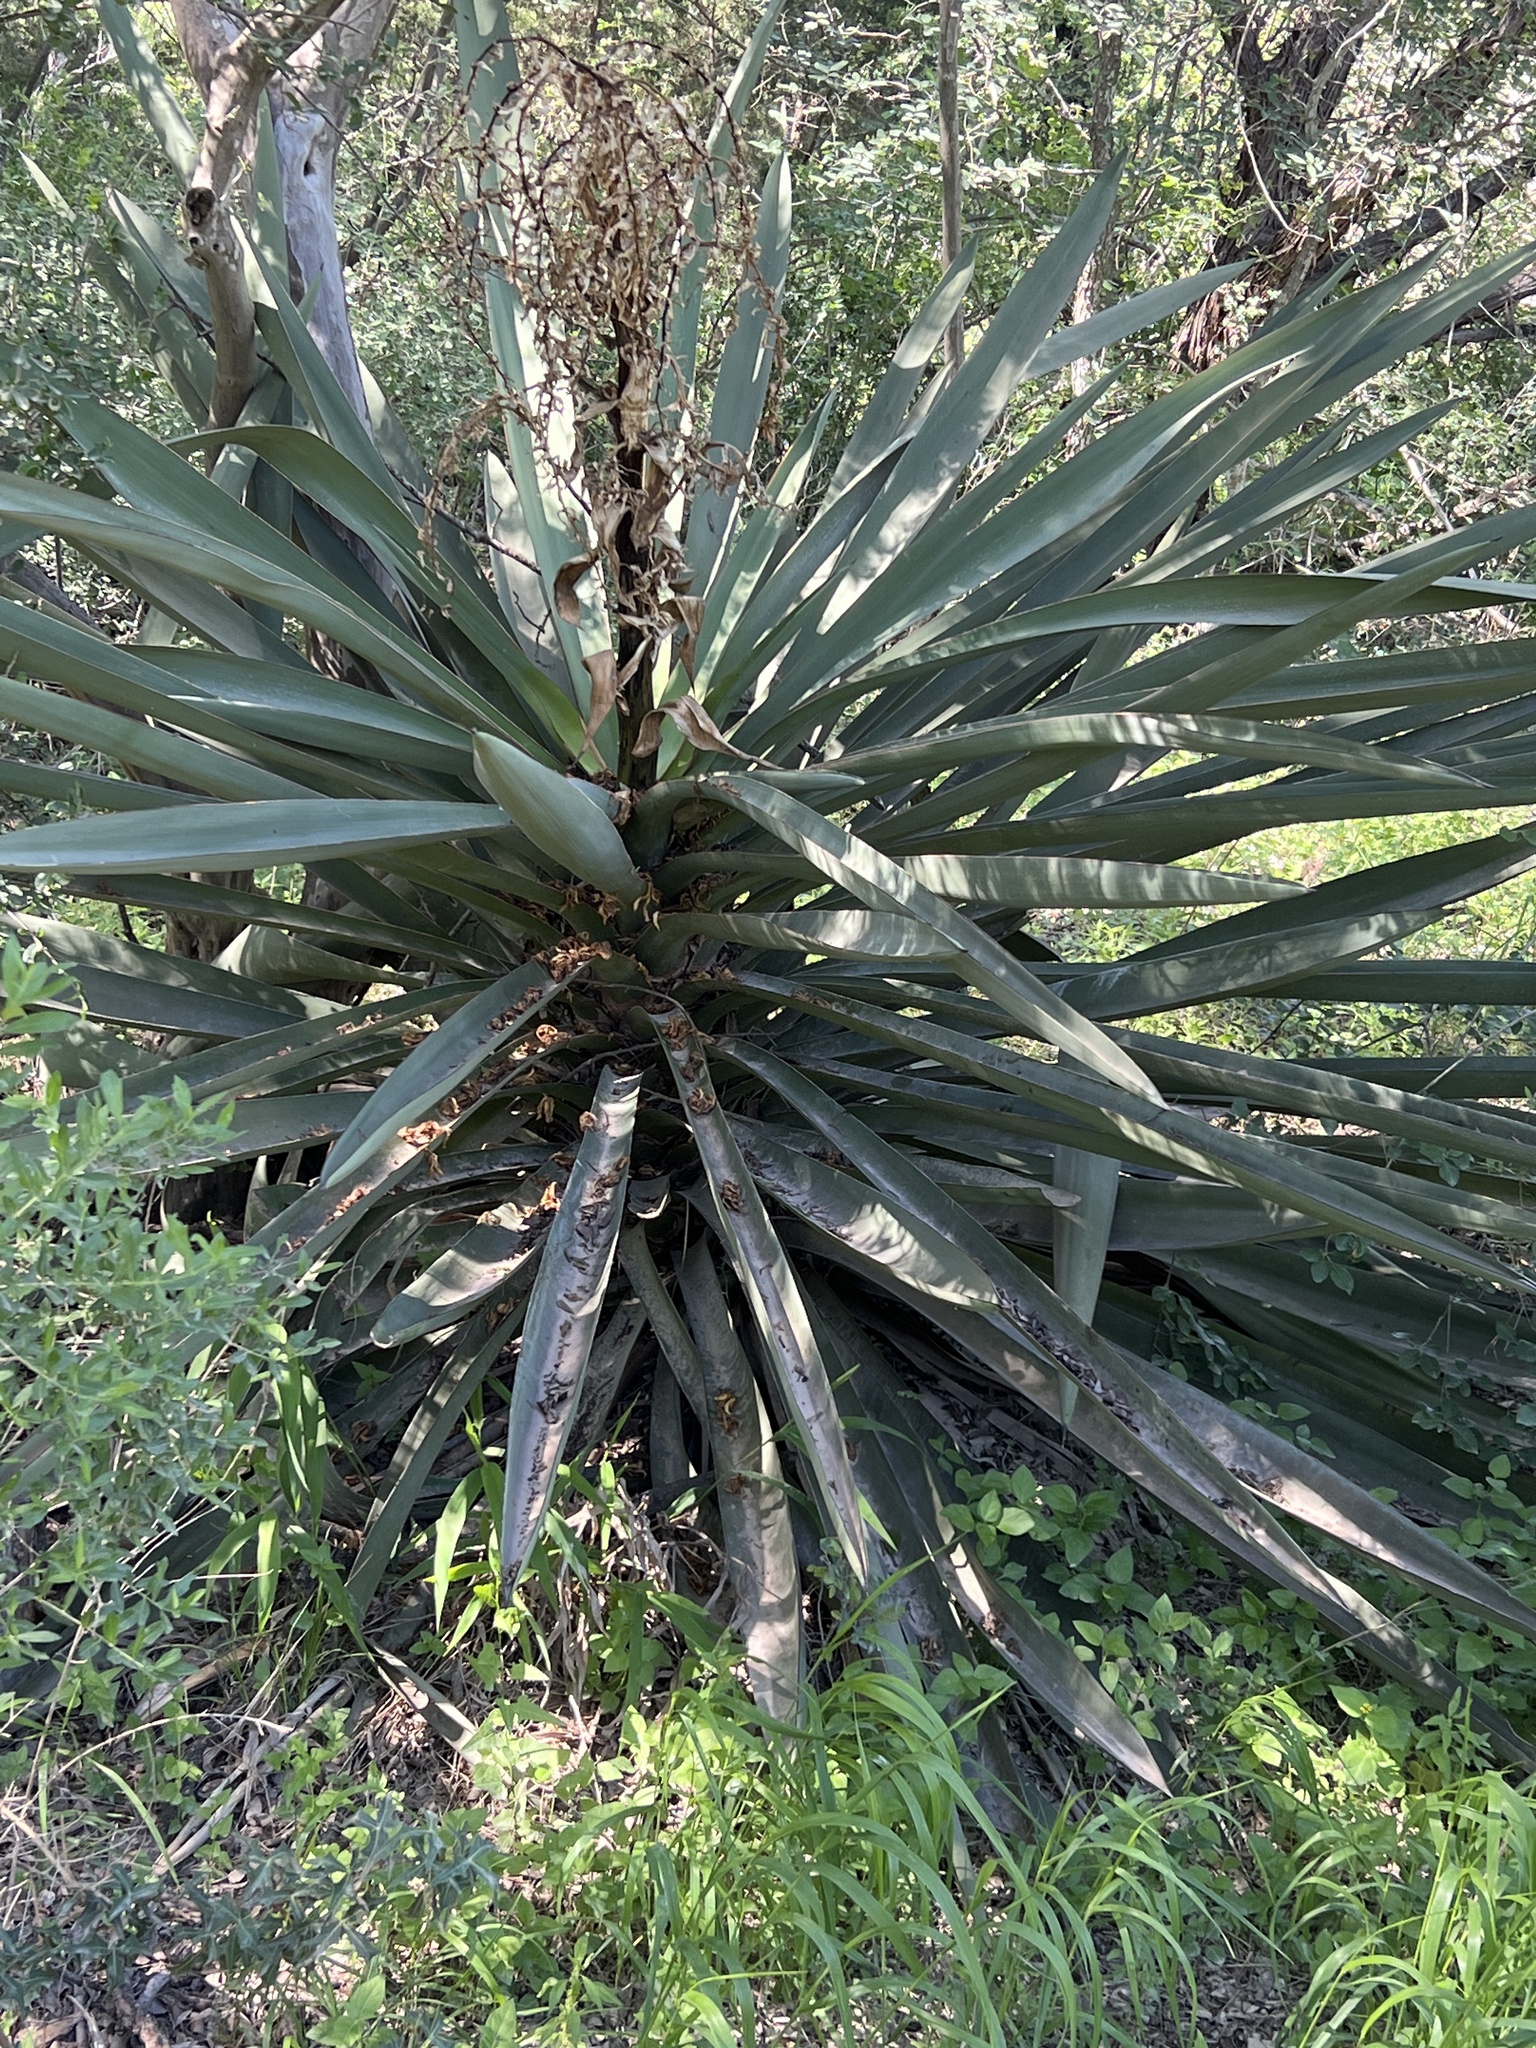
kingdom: Plantae
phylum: Tracheophyta
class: Liliopsida
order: Asparagales
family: Asparagaceae
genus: Yucca
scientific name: Yucca treculiana
